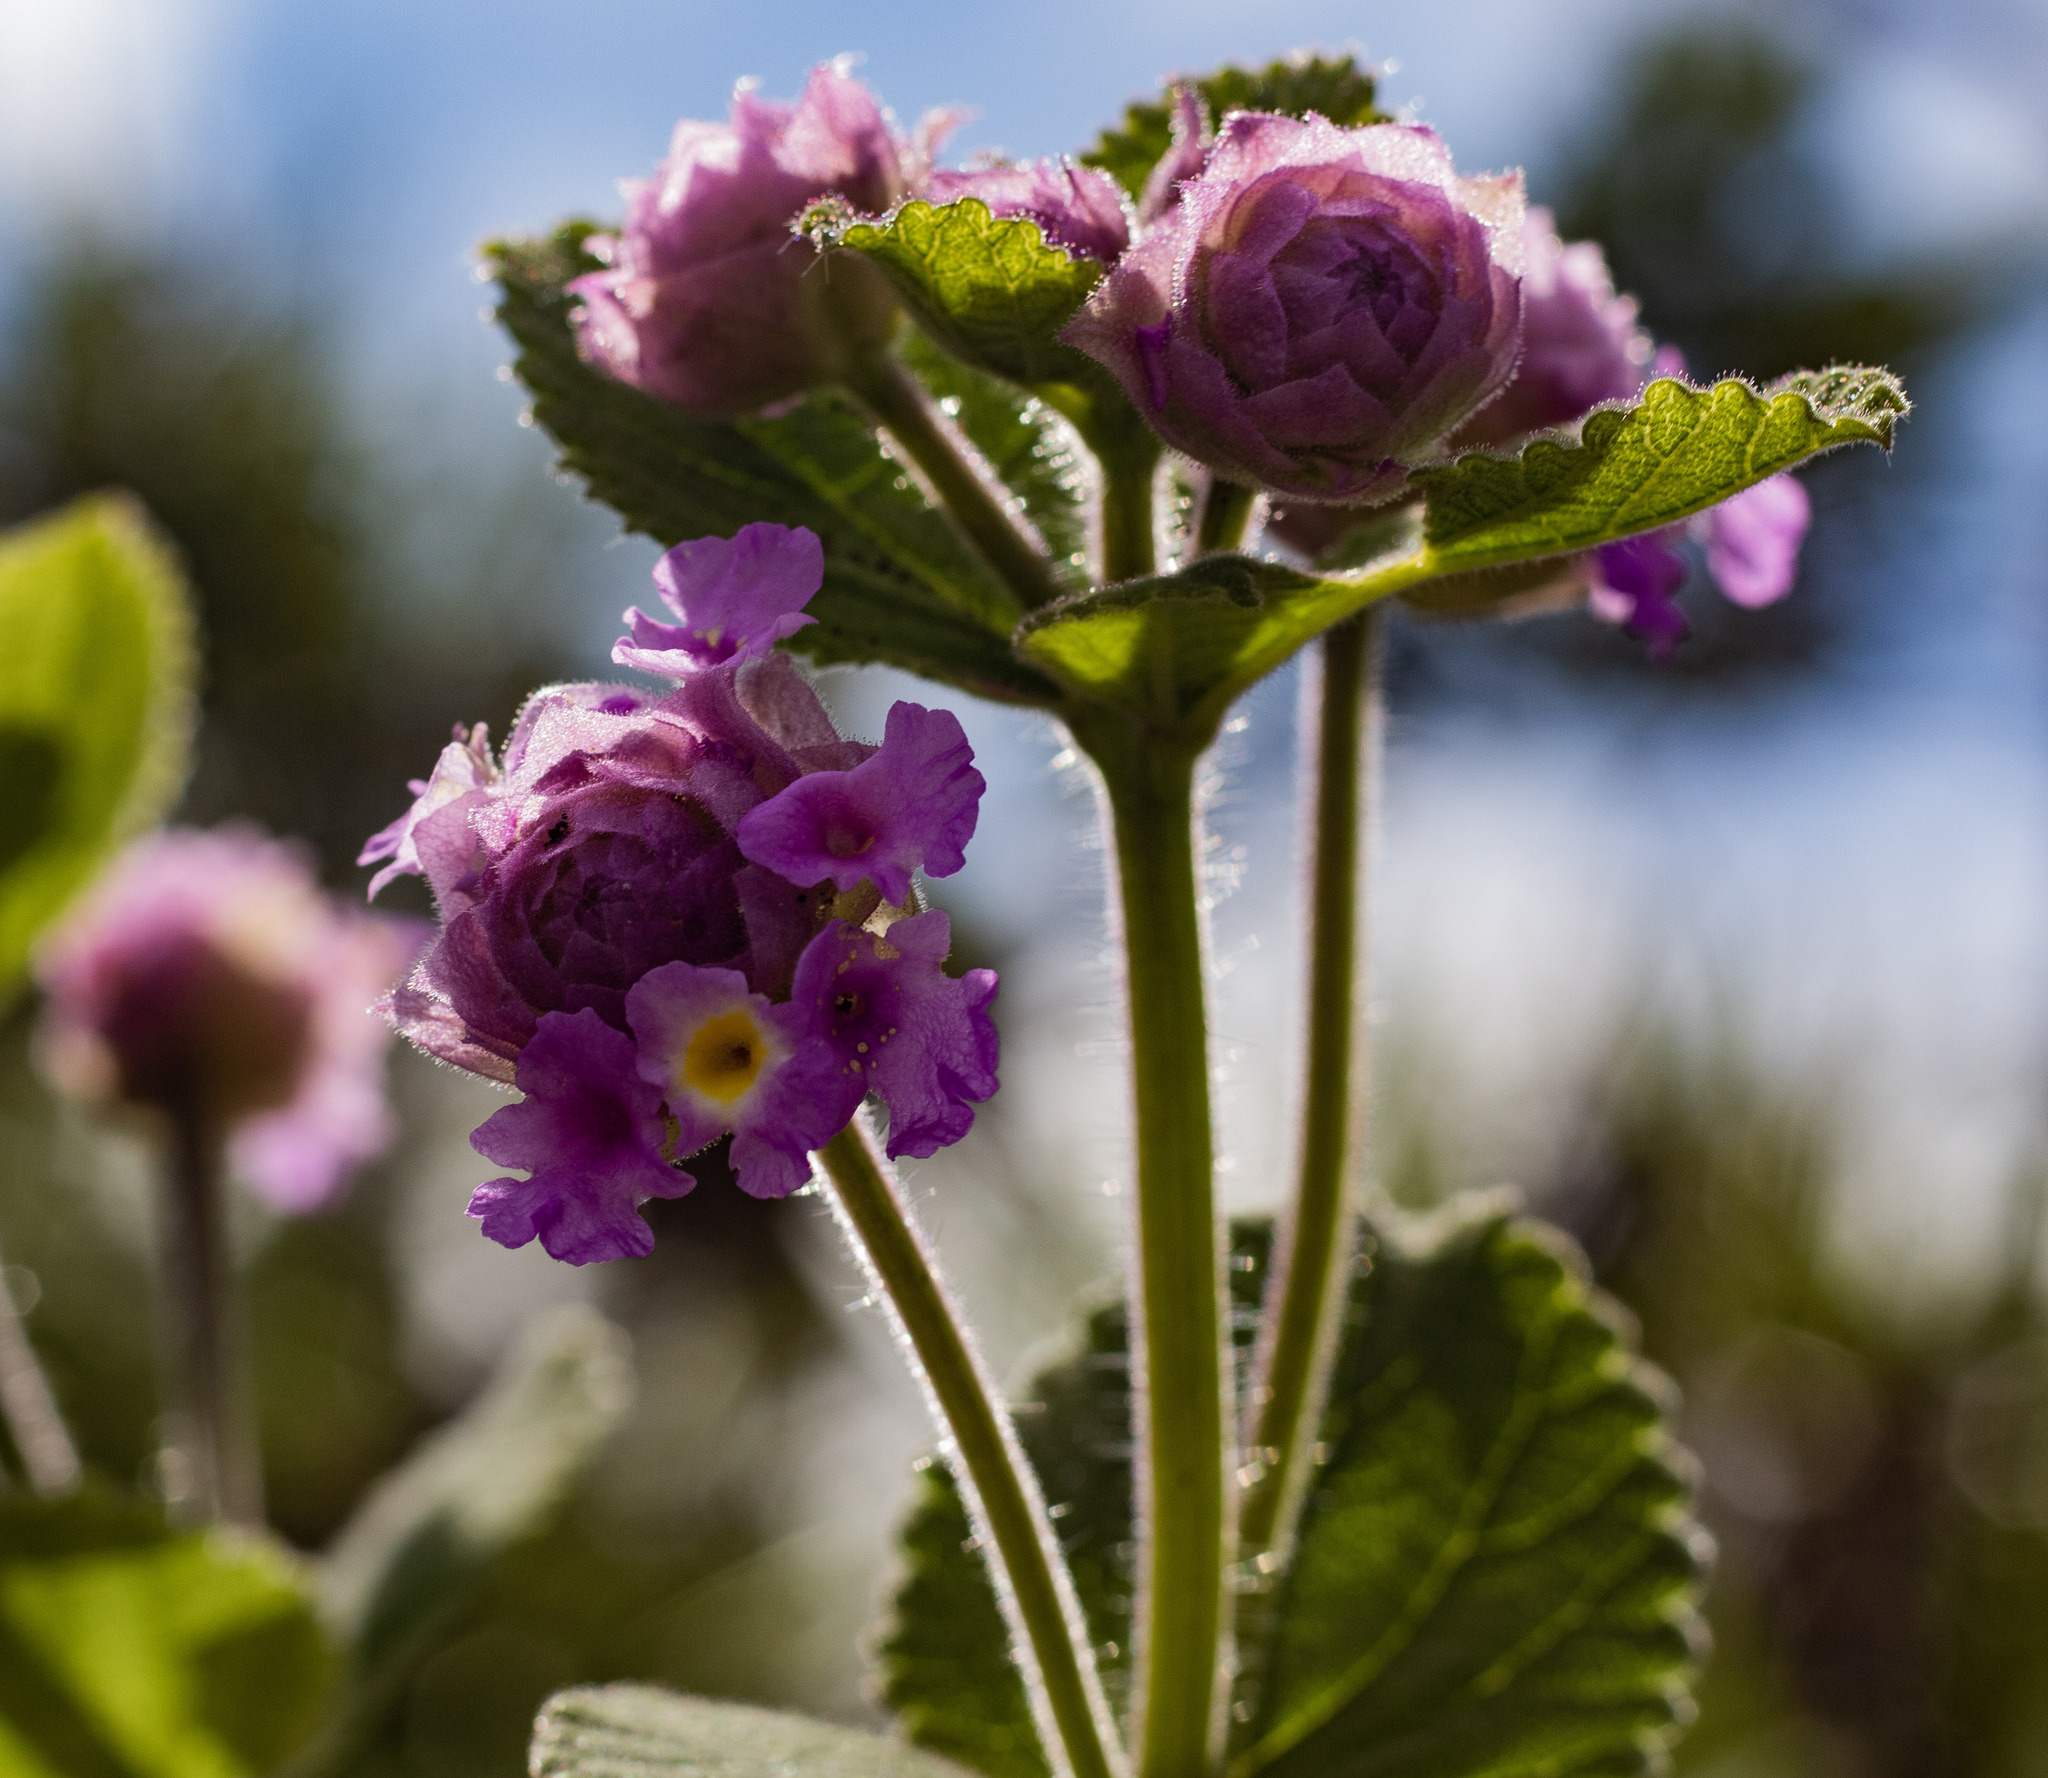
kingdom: Plantae
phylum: Tracheophyta
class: Magnoliopsida
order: Lamiales
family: Verbenaceae
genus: Lippia
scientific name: Lippia lupulina
